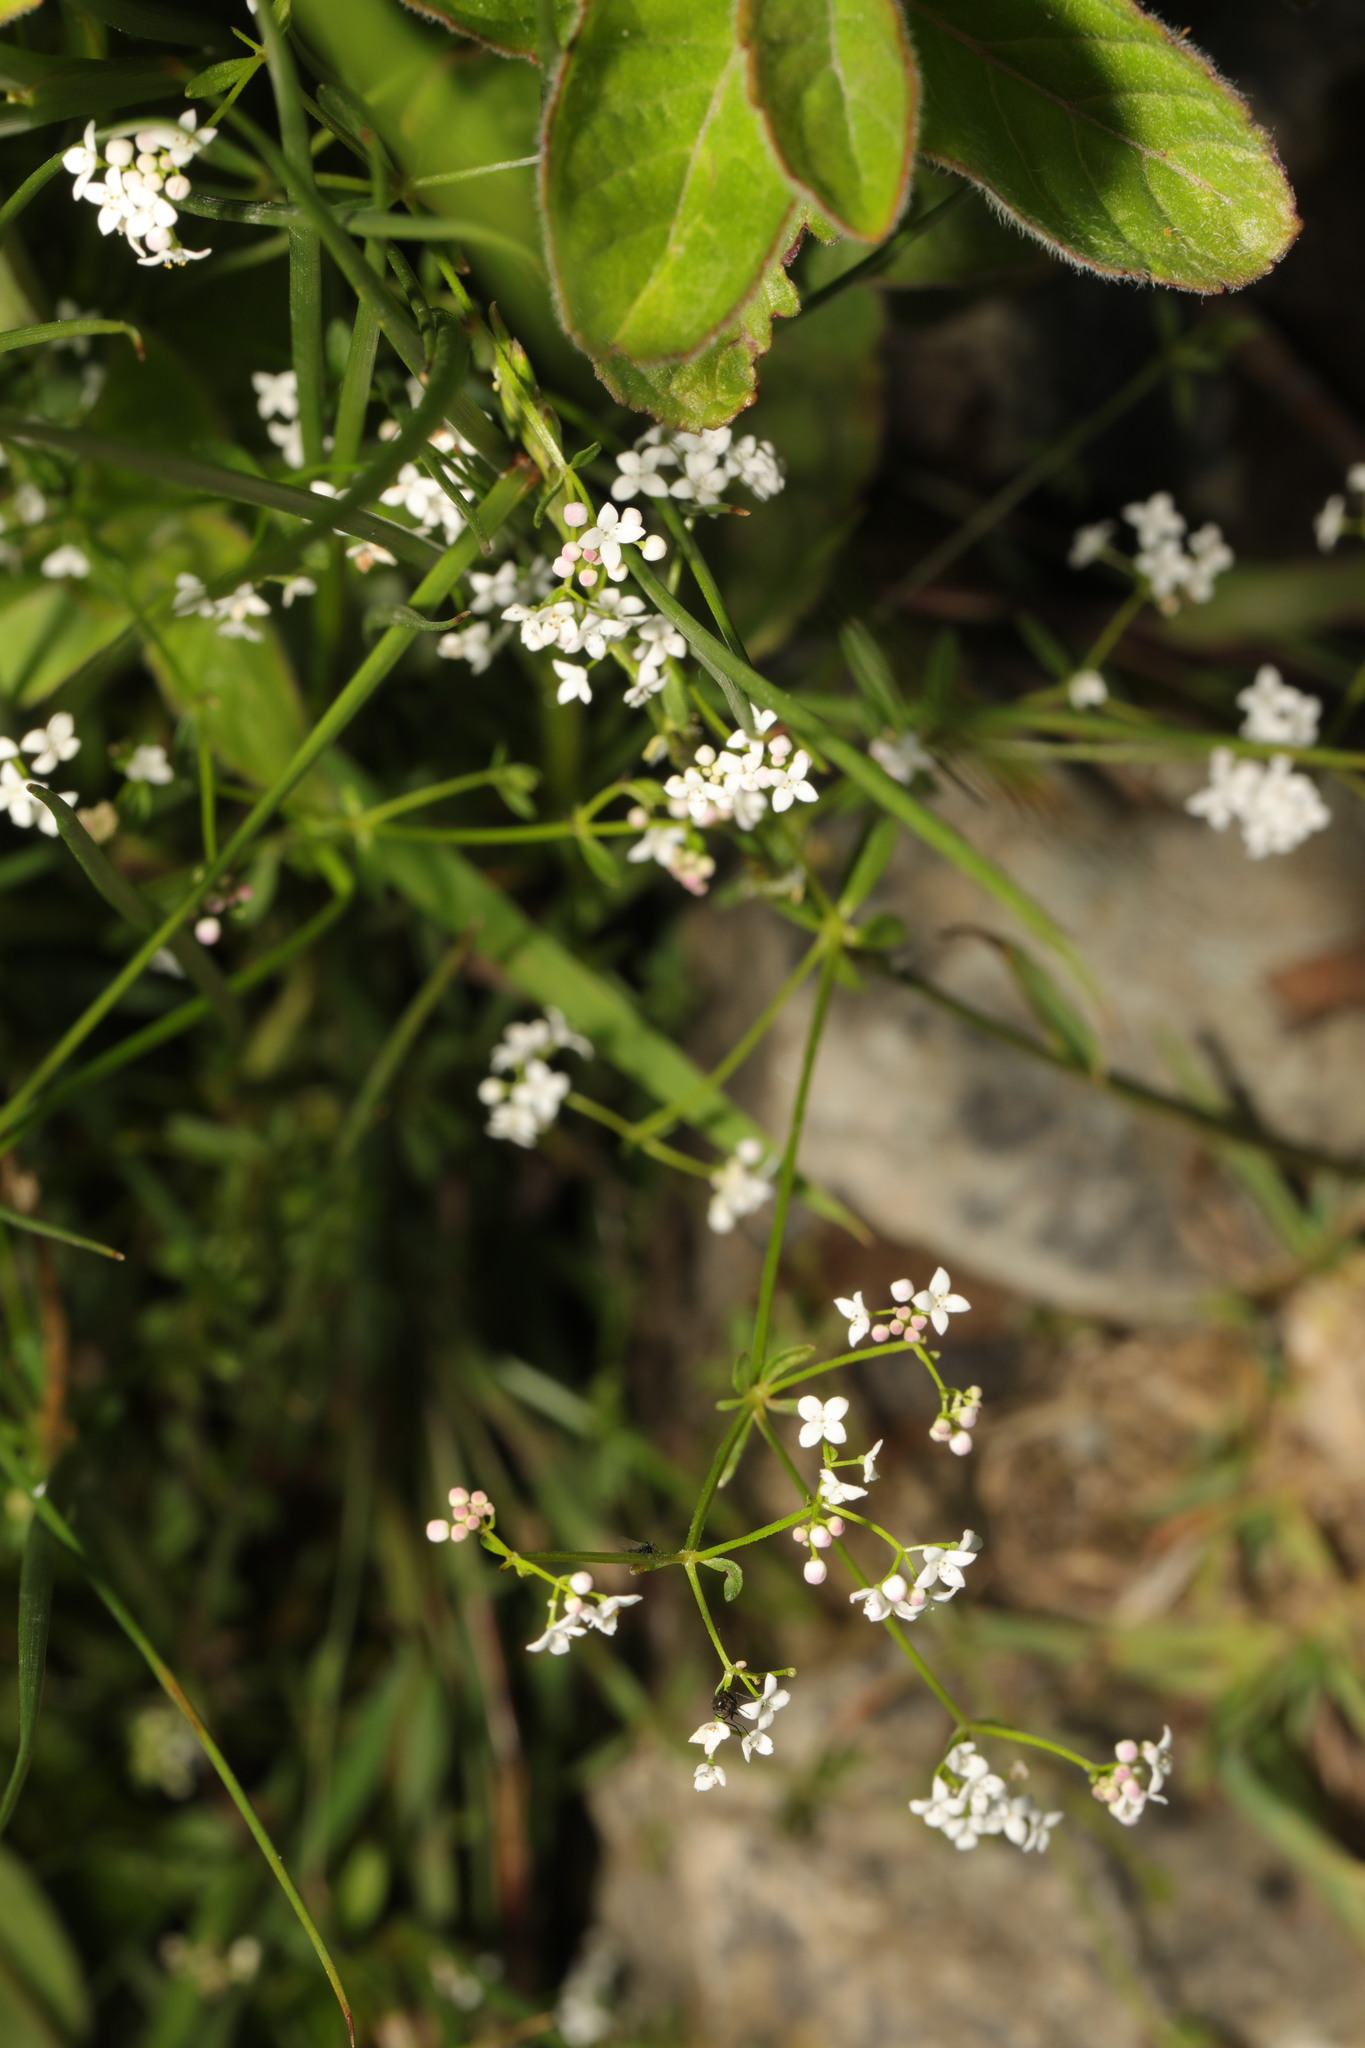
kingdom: Plantae
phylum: Tracheophyta
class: Magnoliopsida
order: Gentianales
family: Rubiaceae
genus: Galium
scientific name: Galium palustre
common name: Common marsh-bedstraw
